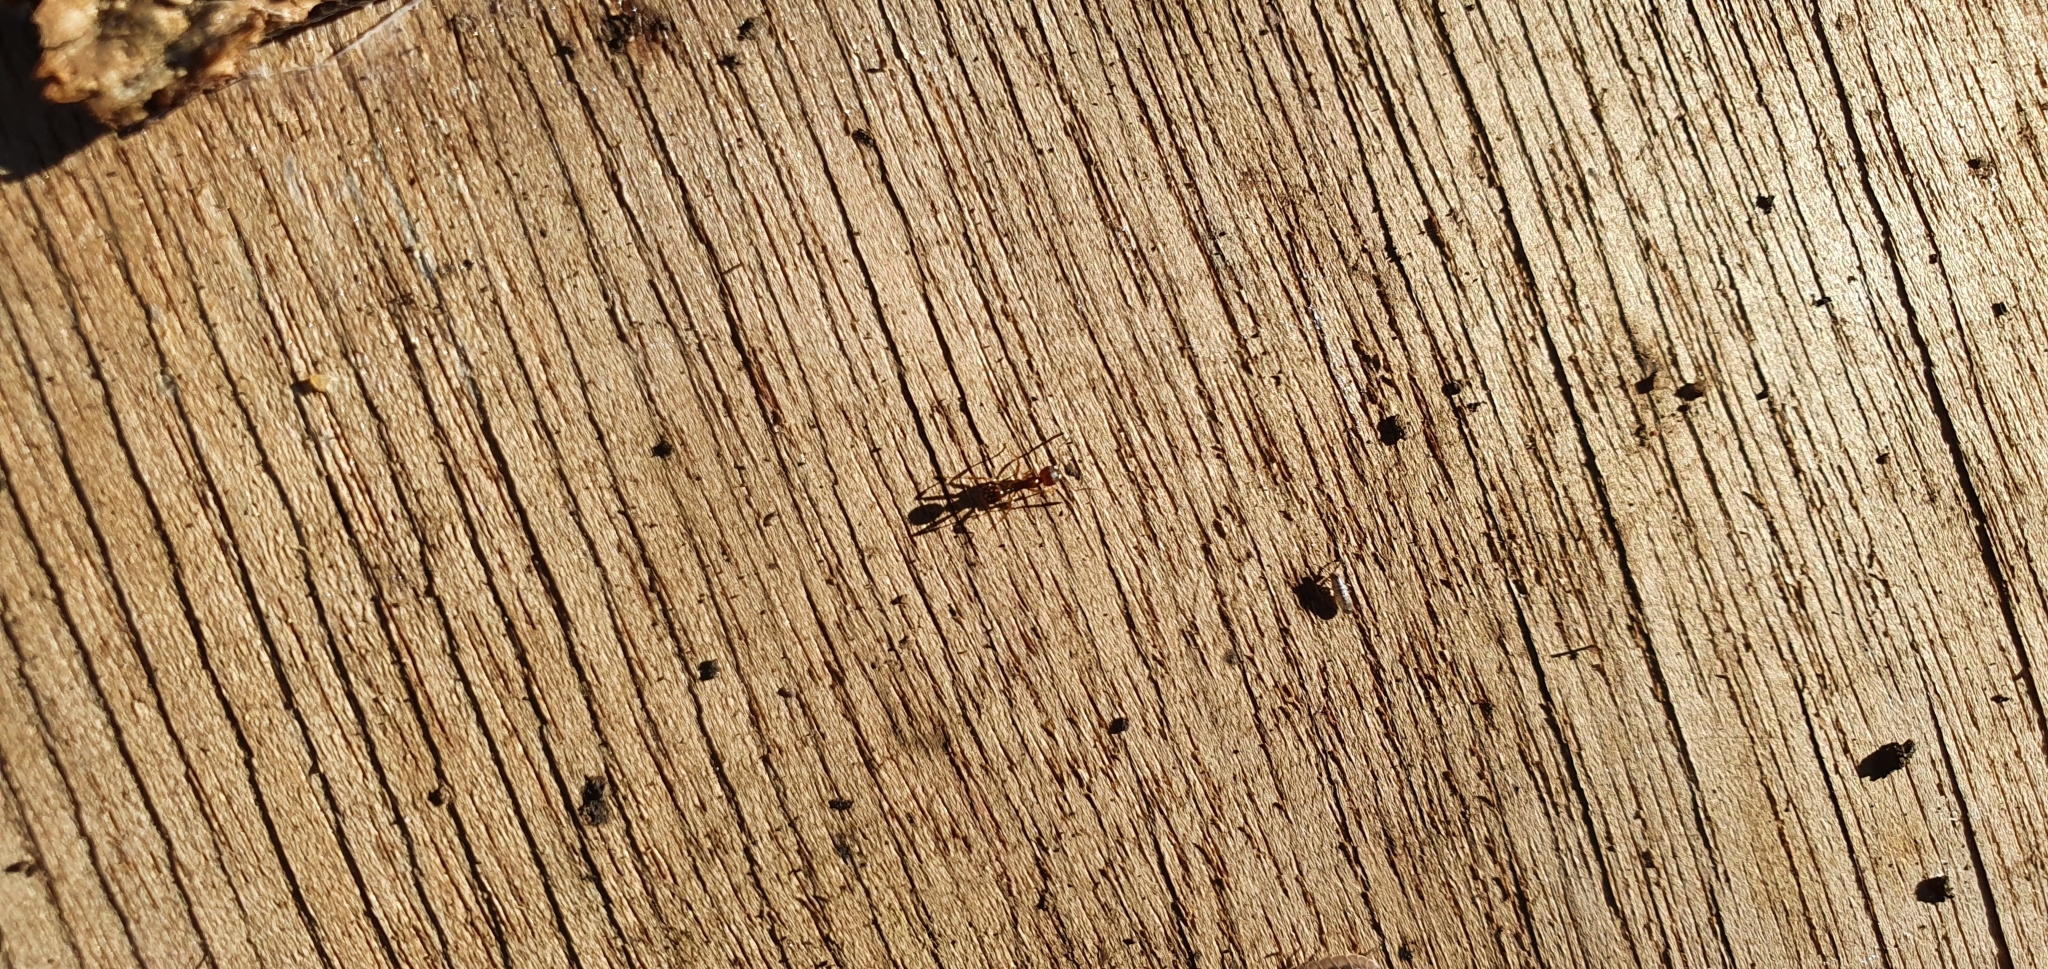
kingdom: Animalia
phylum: Arthropoda
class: Insecta
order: Hymenoptera
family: Formicidae
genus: Aphaenogaster
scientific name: Aphaenogaster subterranea
